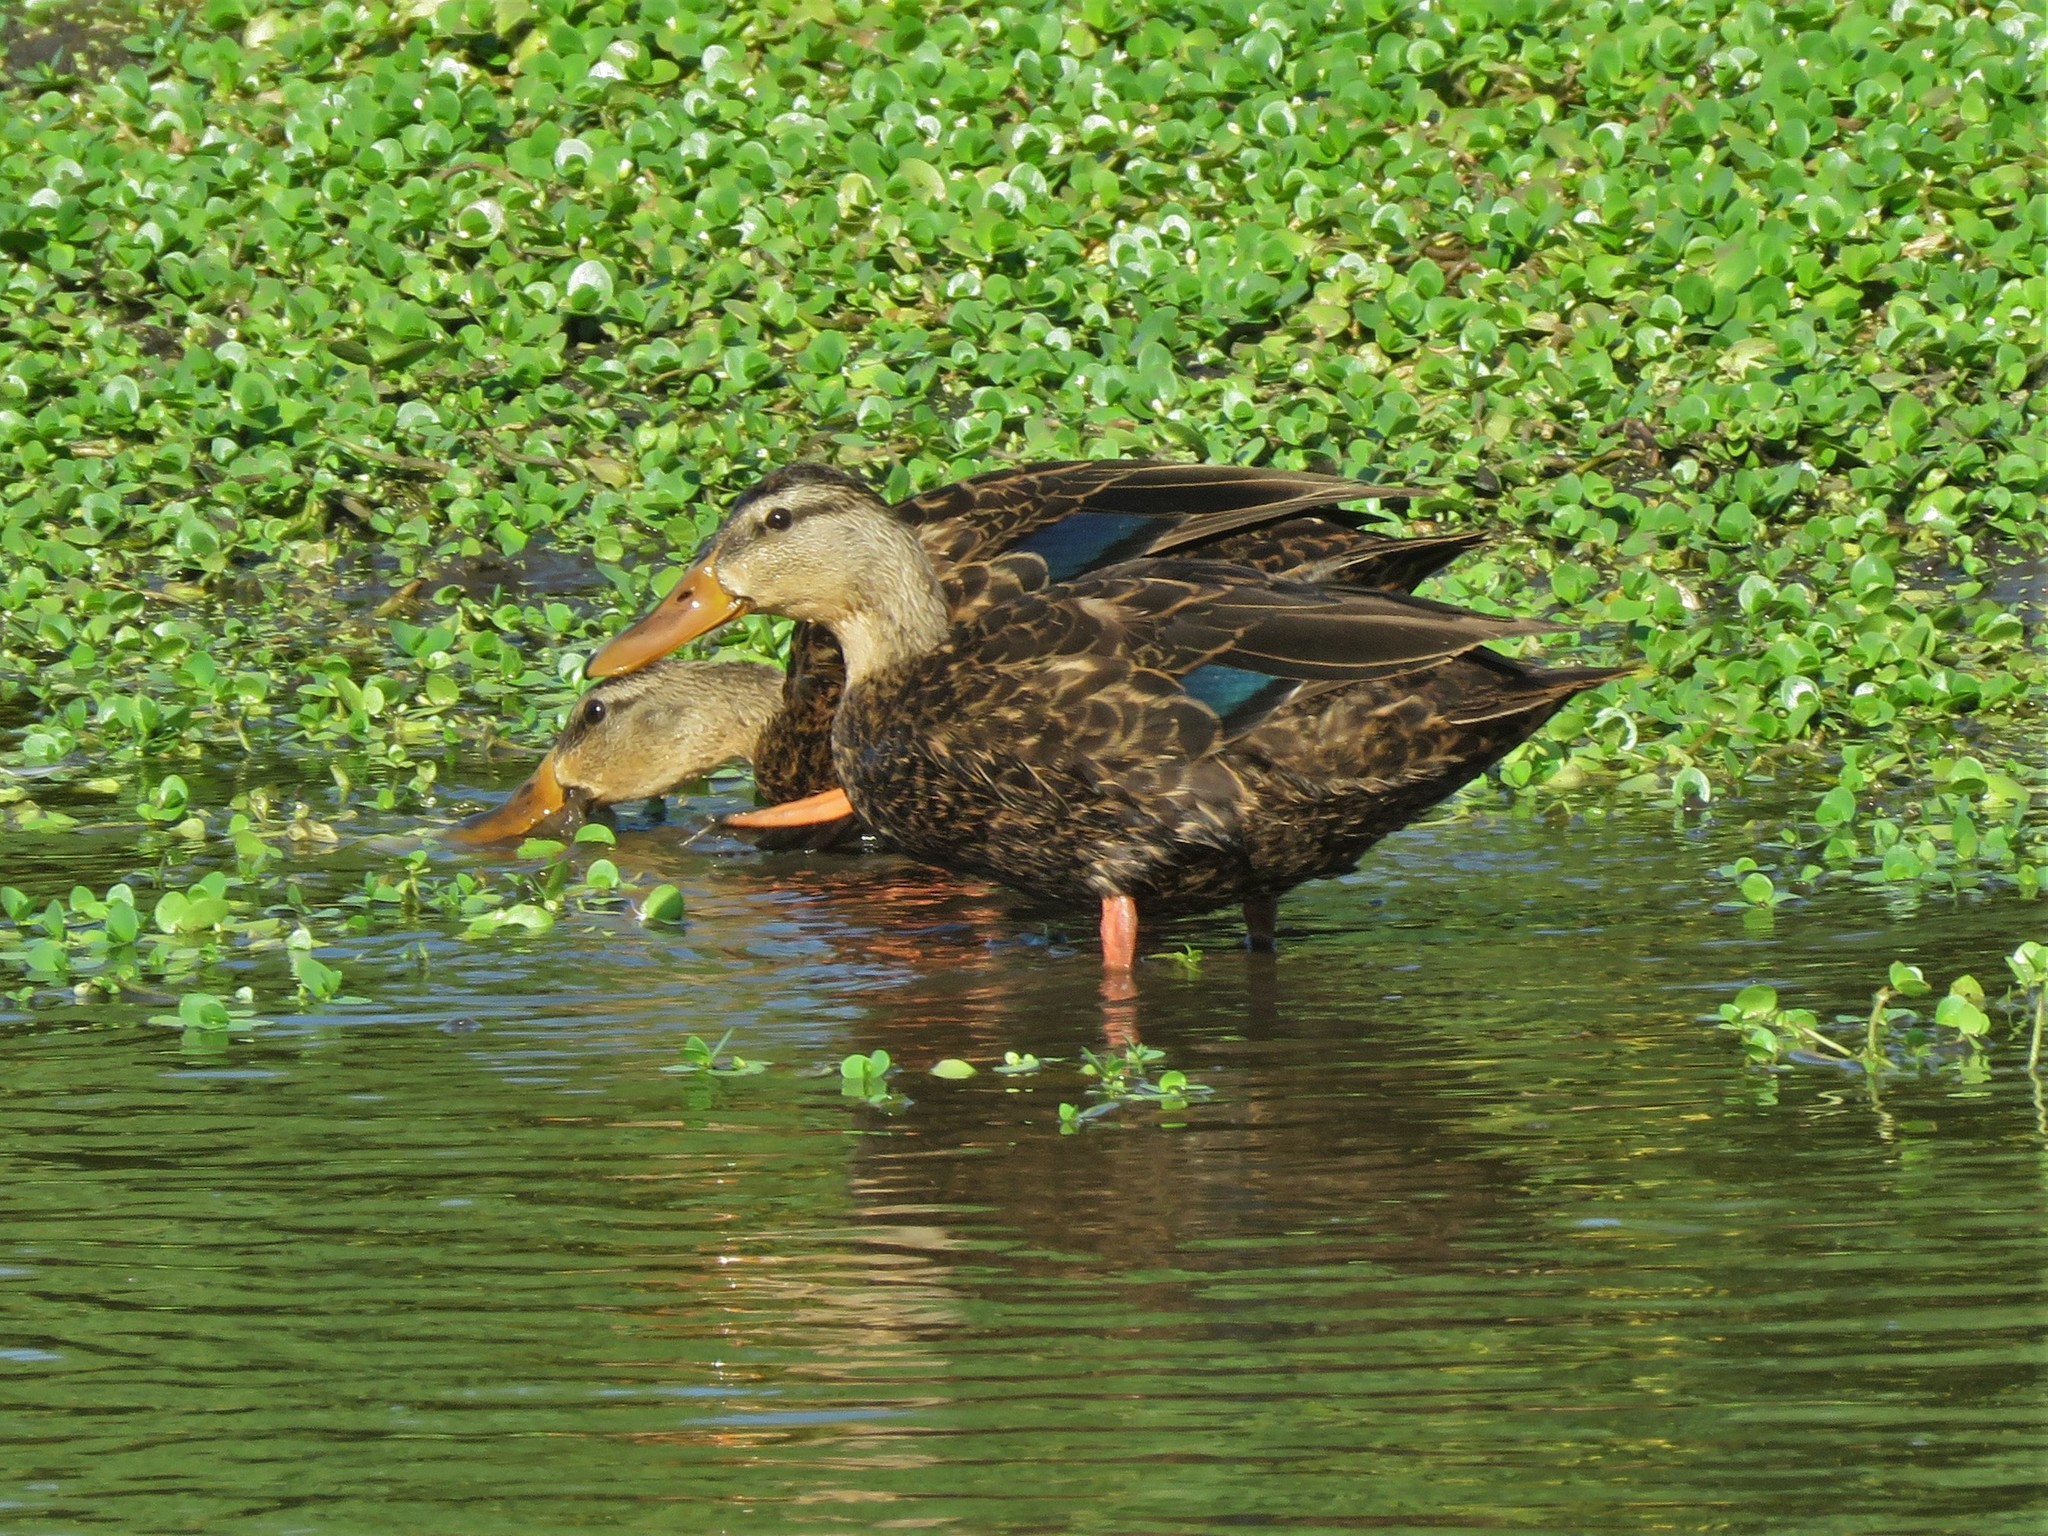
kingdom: Animalia
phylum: Chordata
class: Aves
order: Anseriformes
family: Anatidae
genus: Anas
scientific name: Anas fulvigula
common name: Mottled duck
